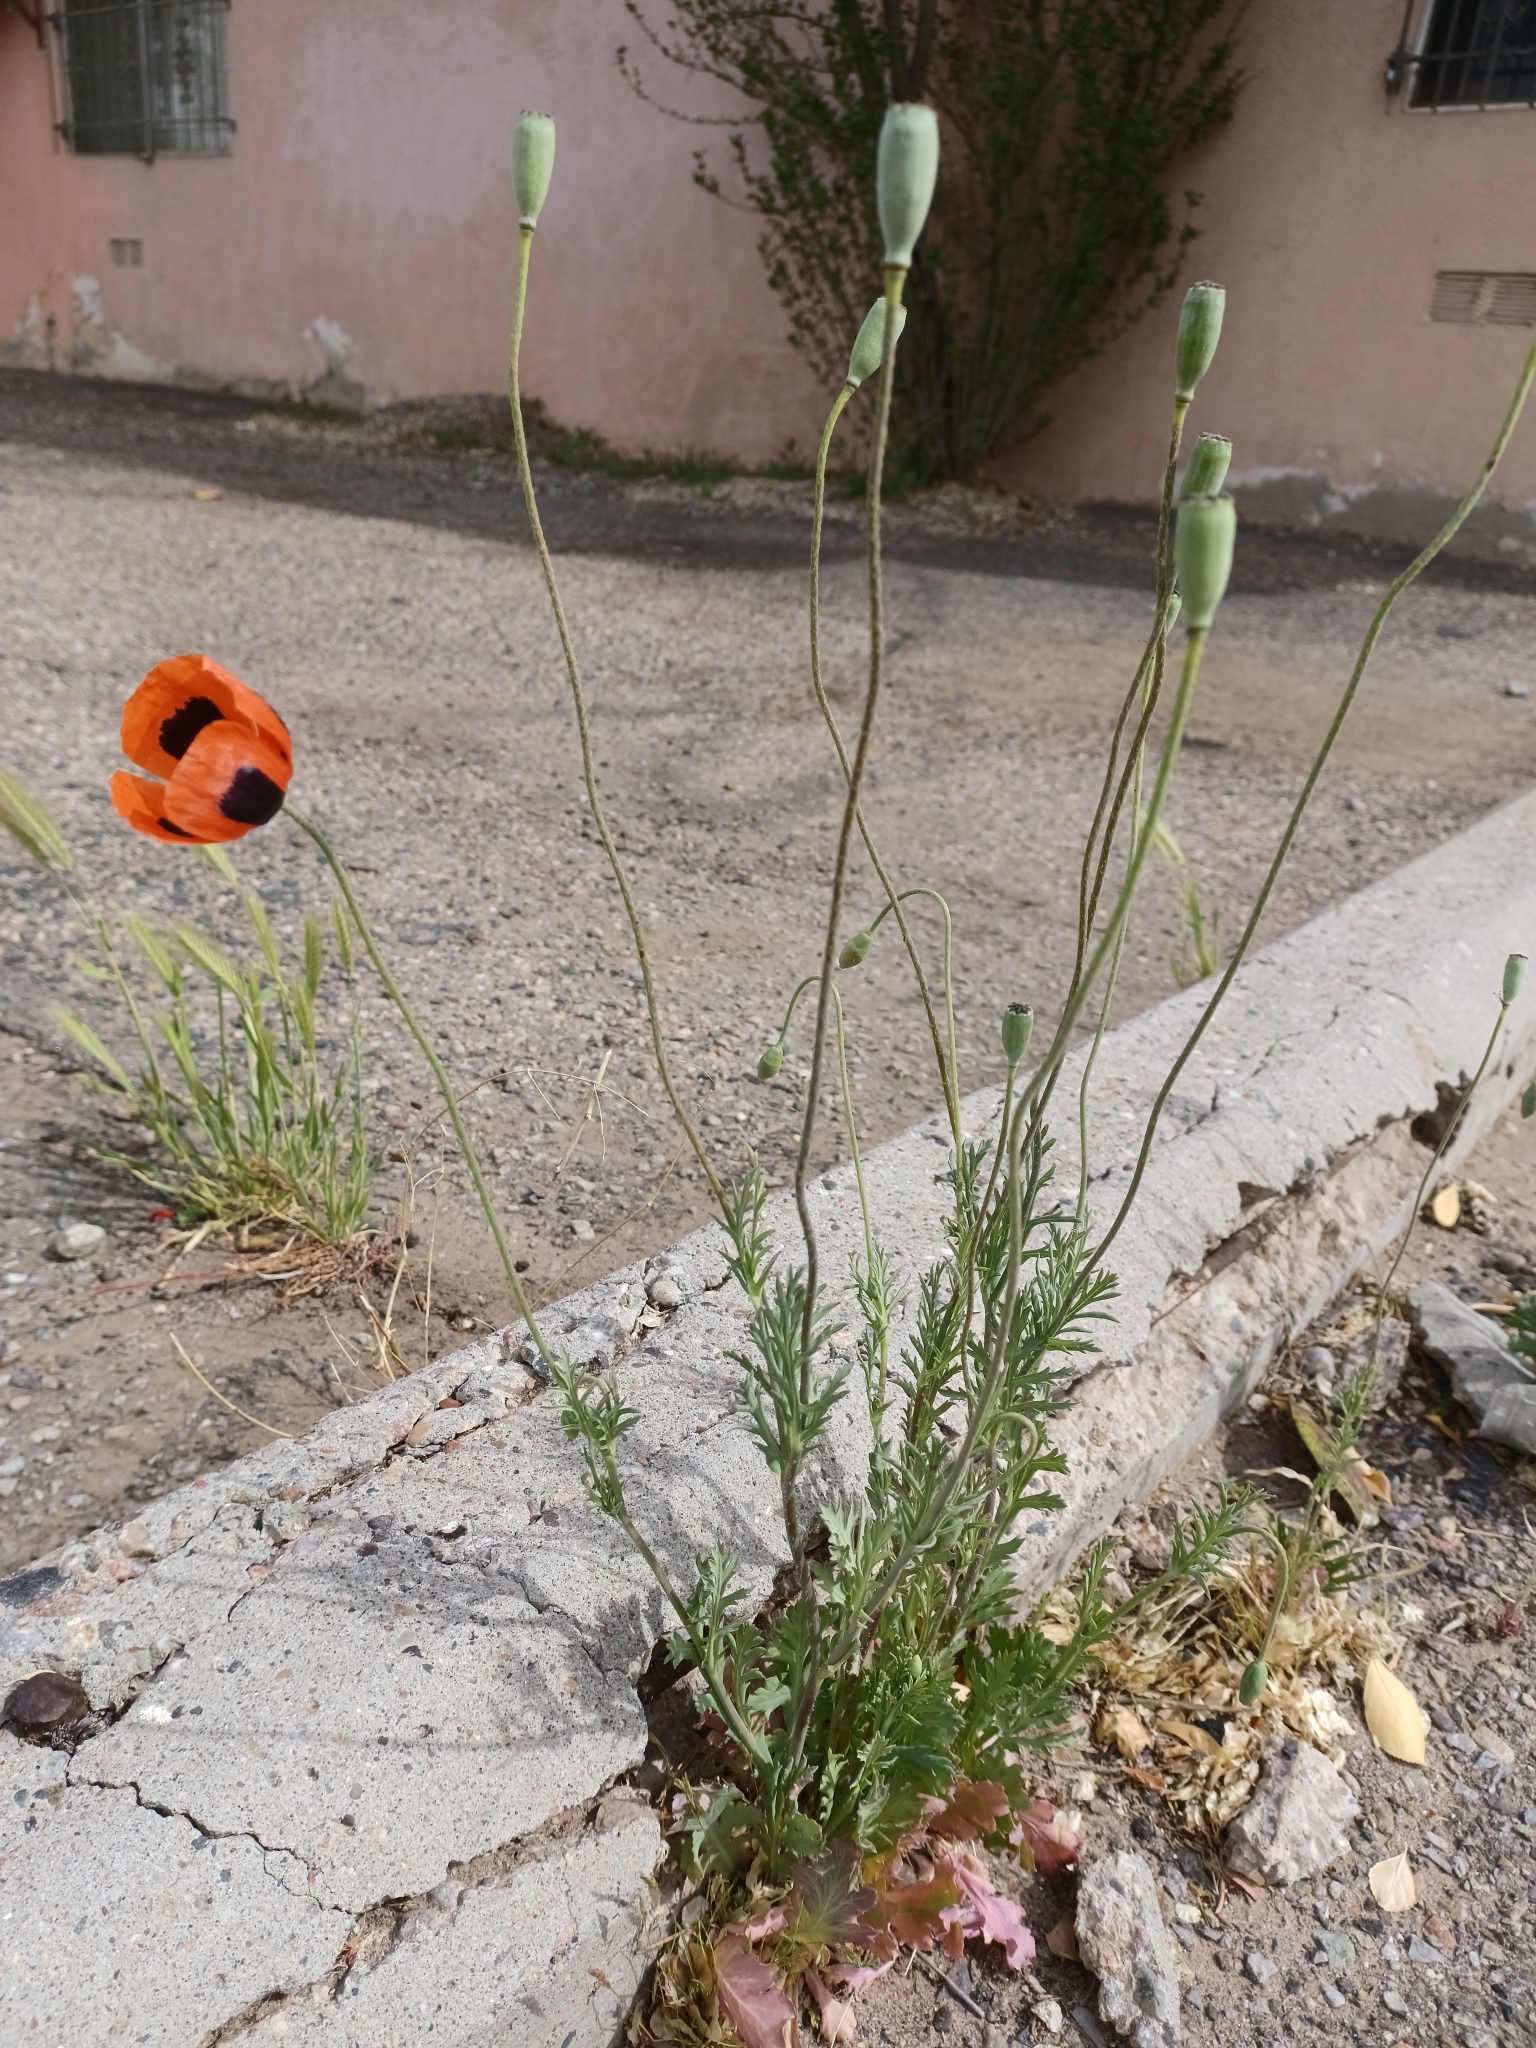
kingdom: Plantae
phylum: Tracheophyta
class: Magnoliopsida
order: Ranunculales
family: Papaveraceae
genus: Papaver
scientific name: Papaver dubium
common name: Long-headed poppy
